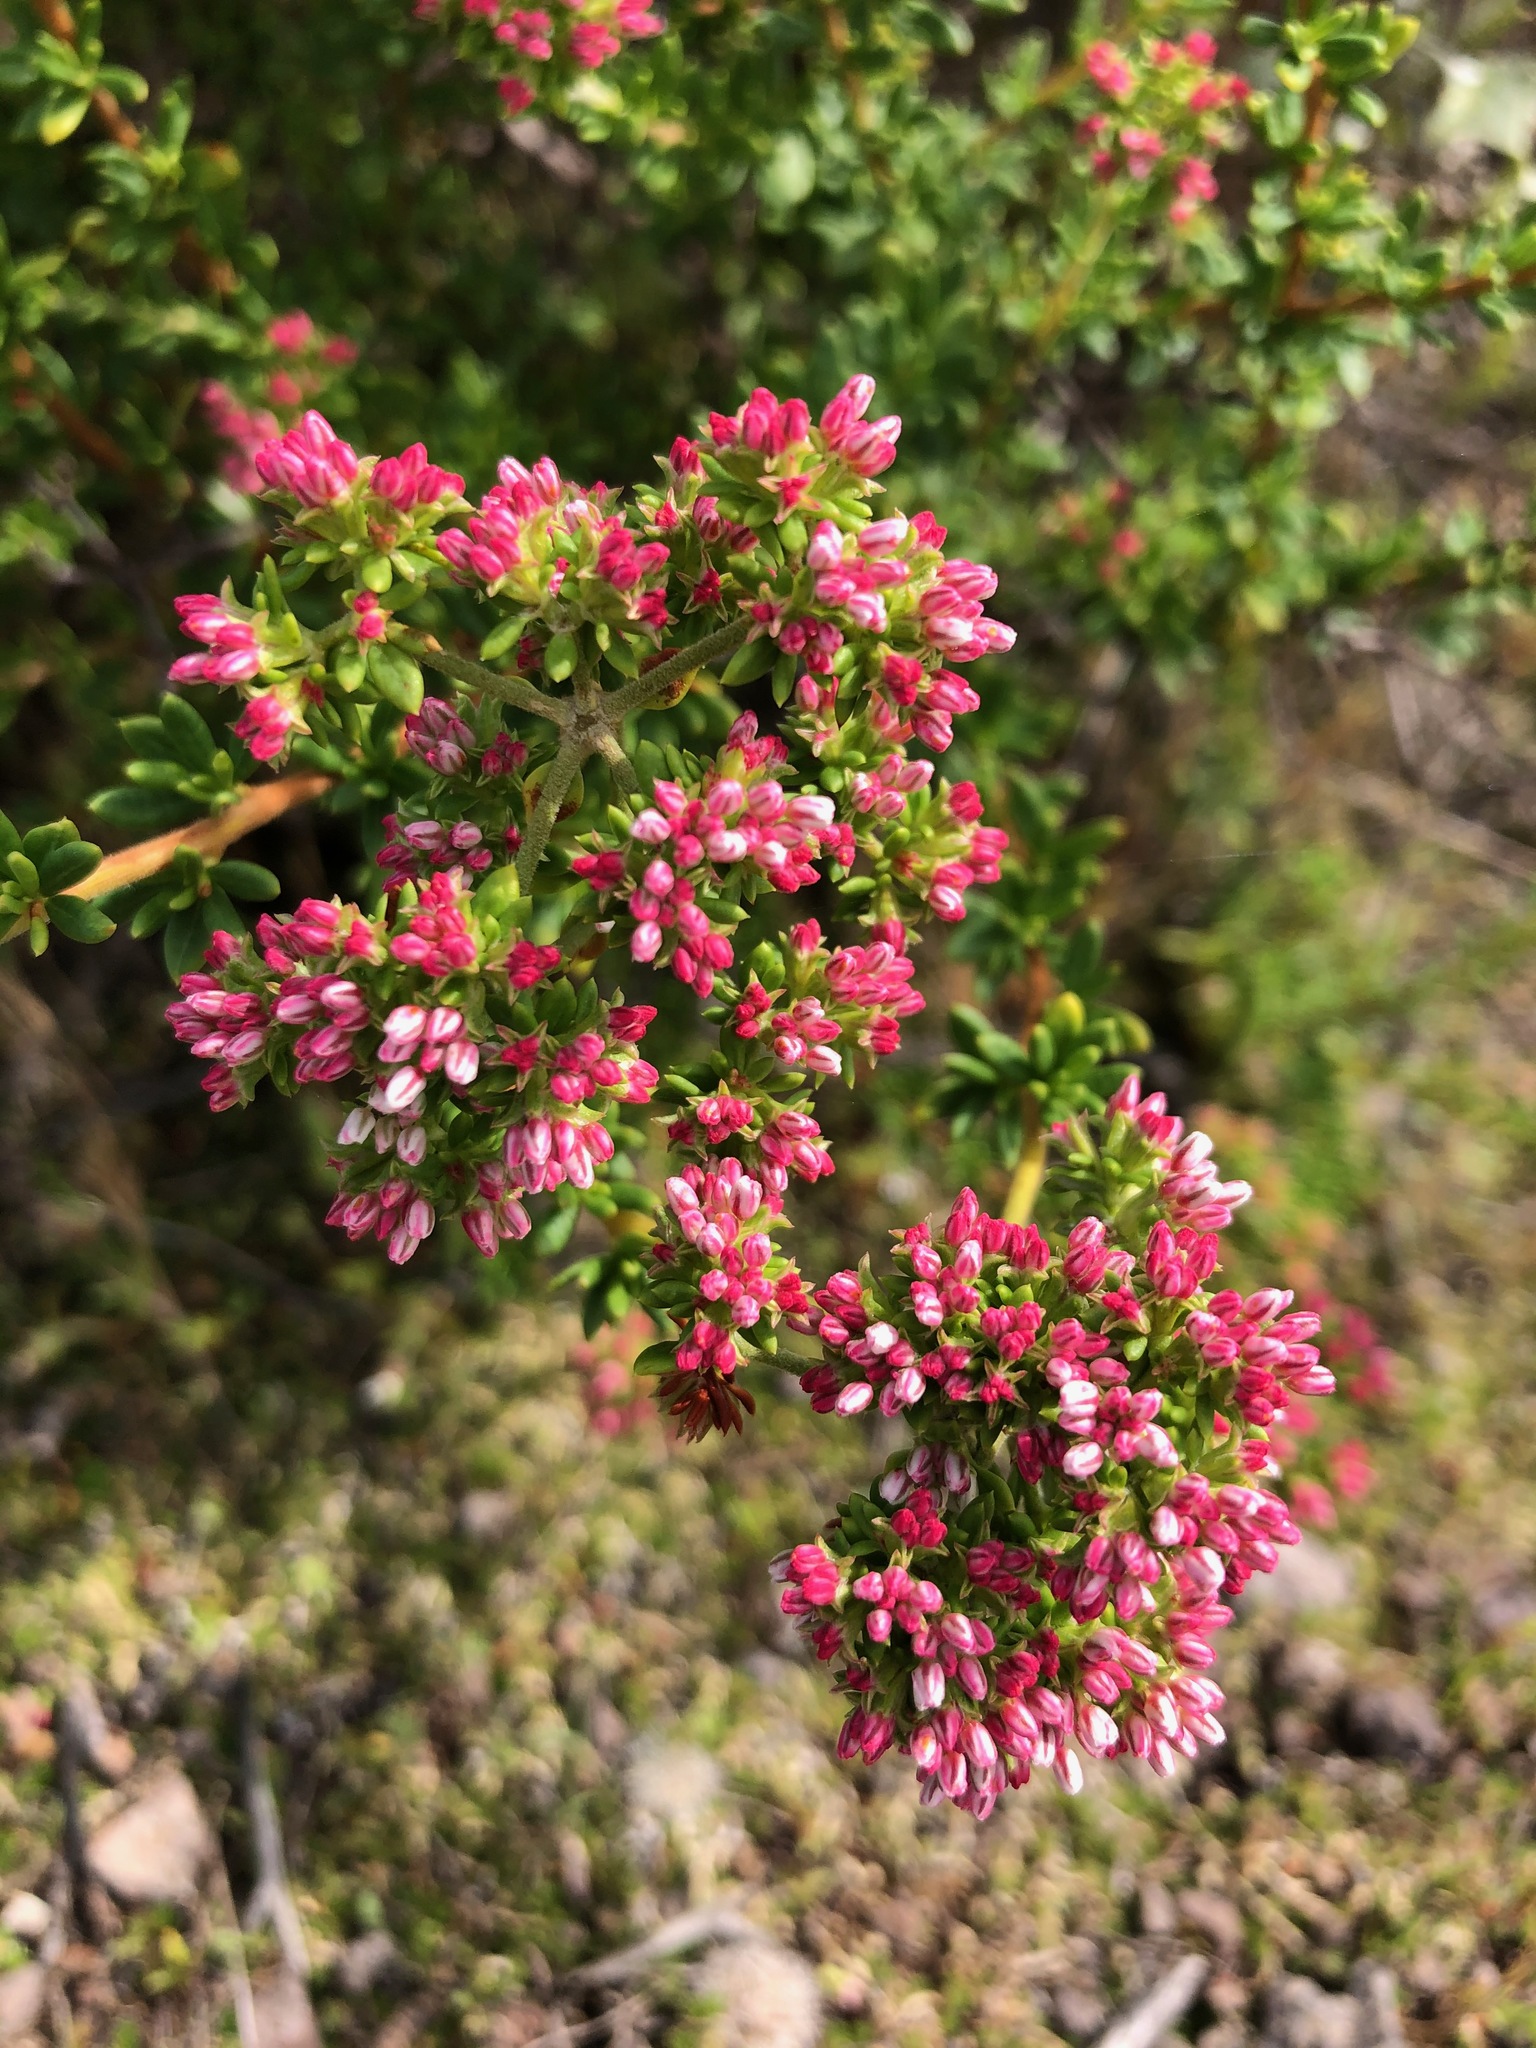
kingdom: Plantae
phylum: Tracheophyta
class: Magnoliopsida
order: Caryophyllales
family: Polygonaceae
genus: Eriogonum
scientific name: Eriogonum fasciculatum
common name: California wild buckwheat
